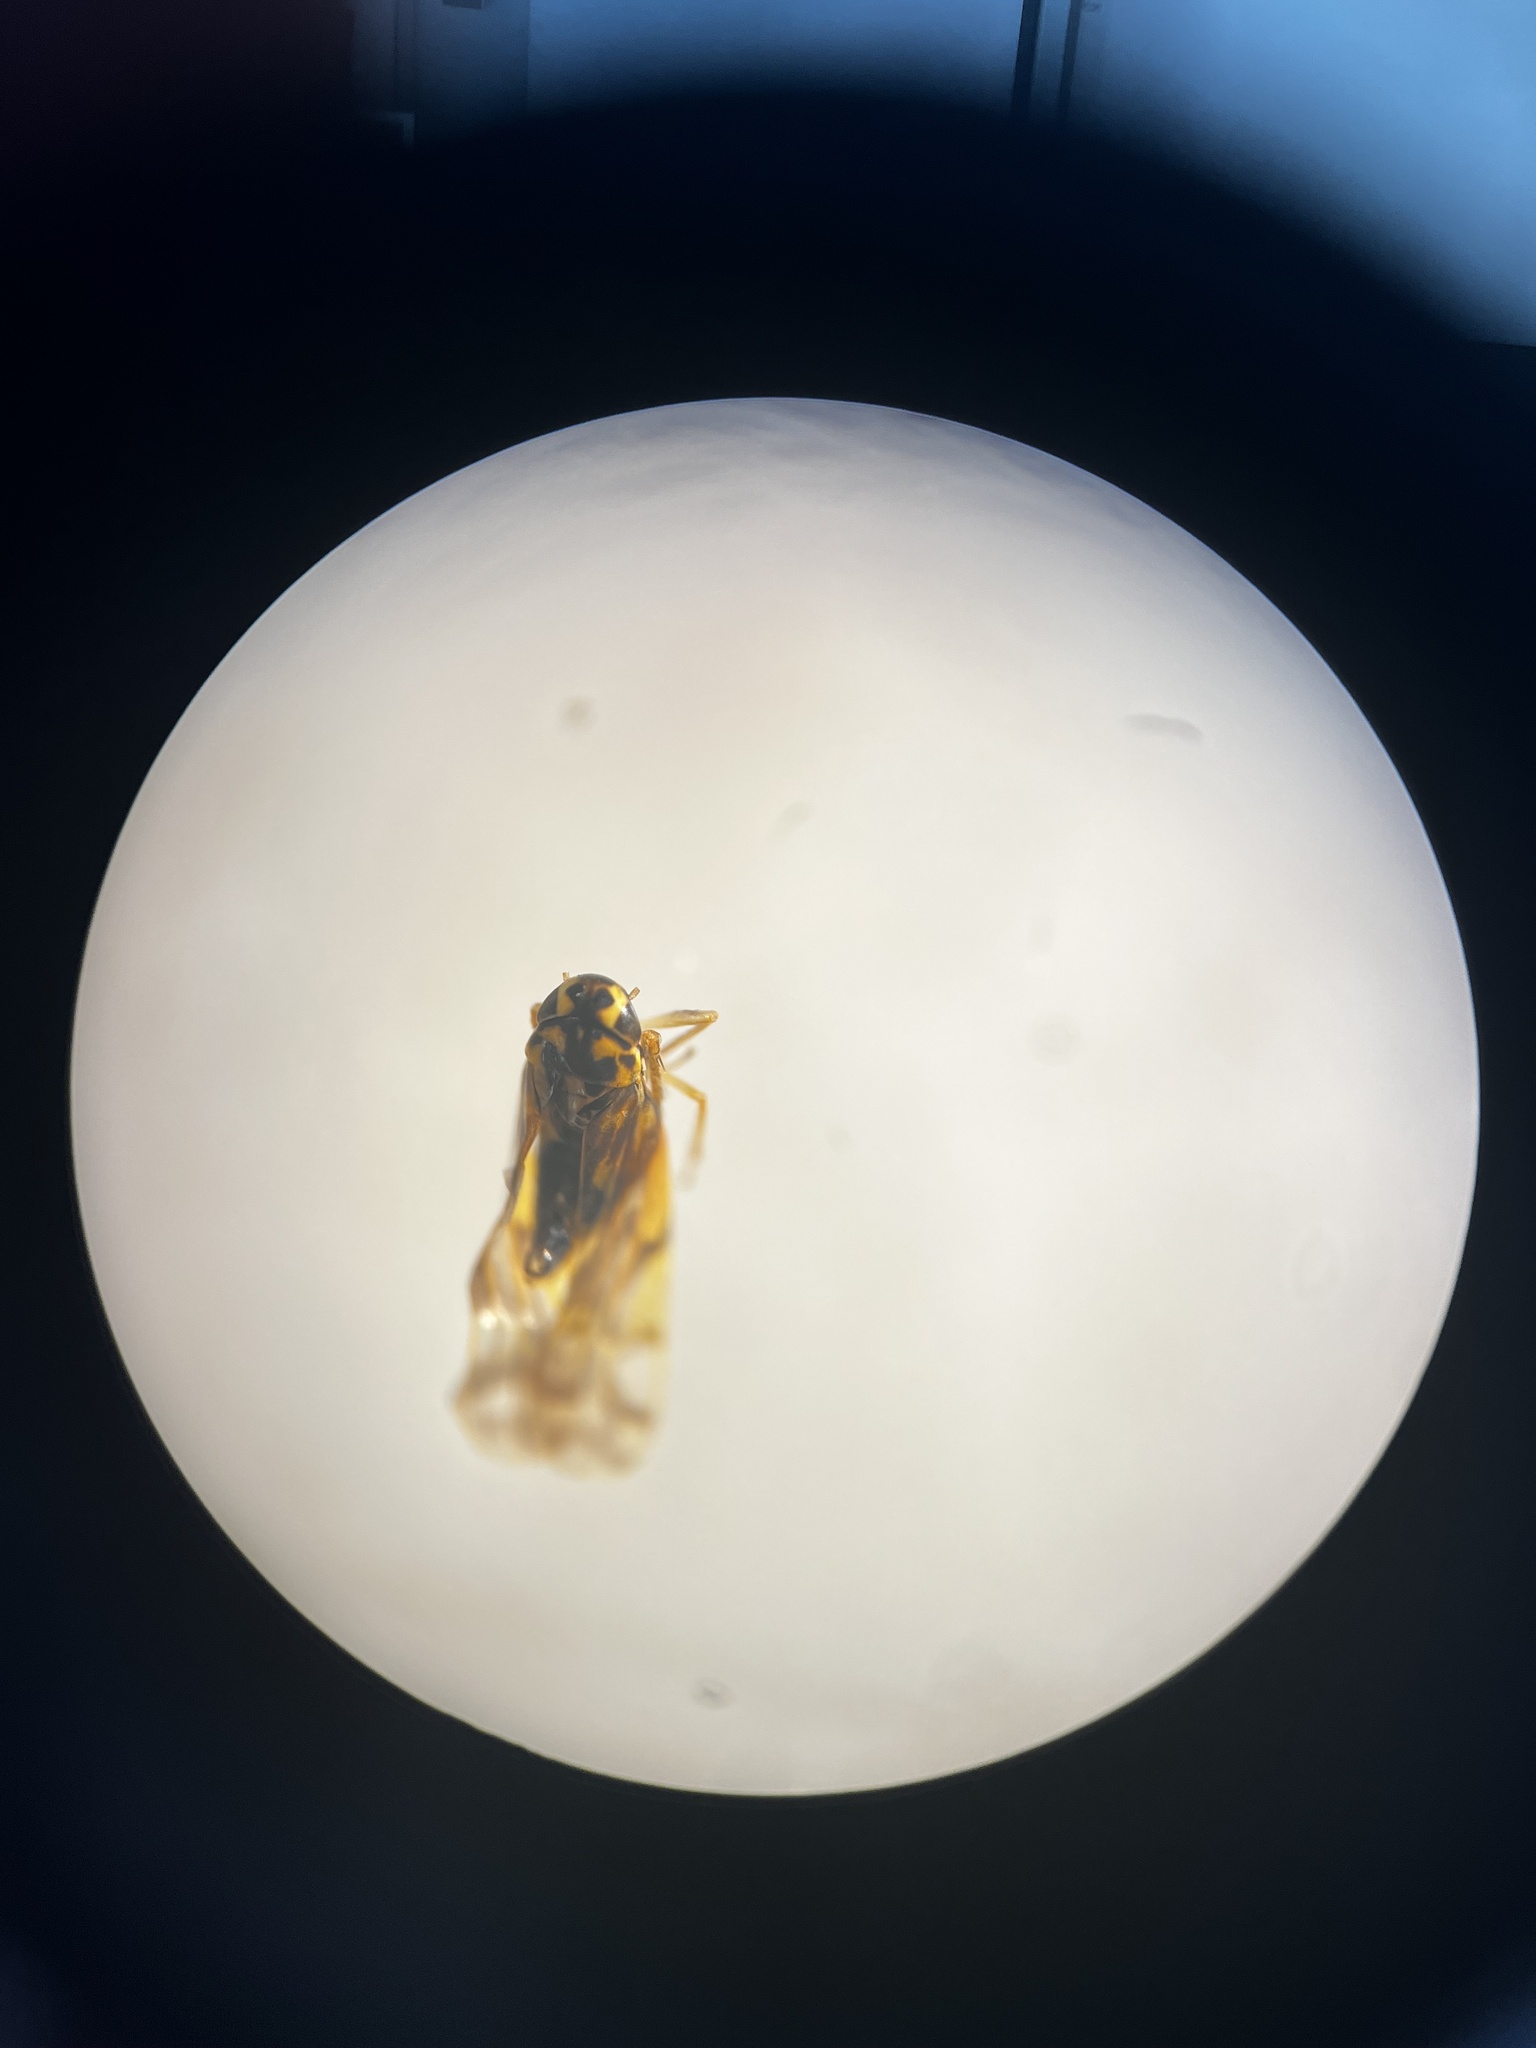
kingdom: Animalia
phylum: Arthropoda
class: Insecta
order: Hemiptera
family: Cicadellidae
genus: Eupteryx
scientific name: Eupteryx cyclops
